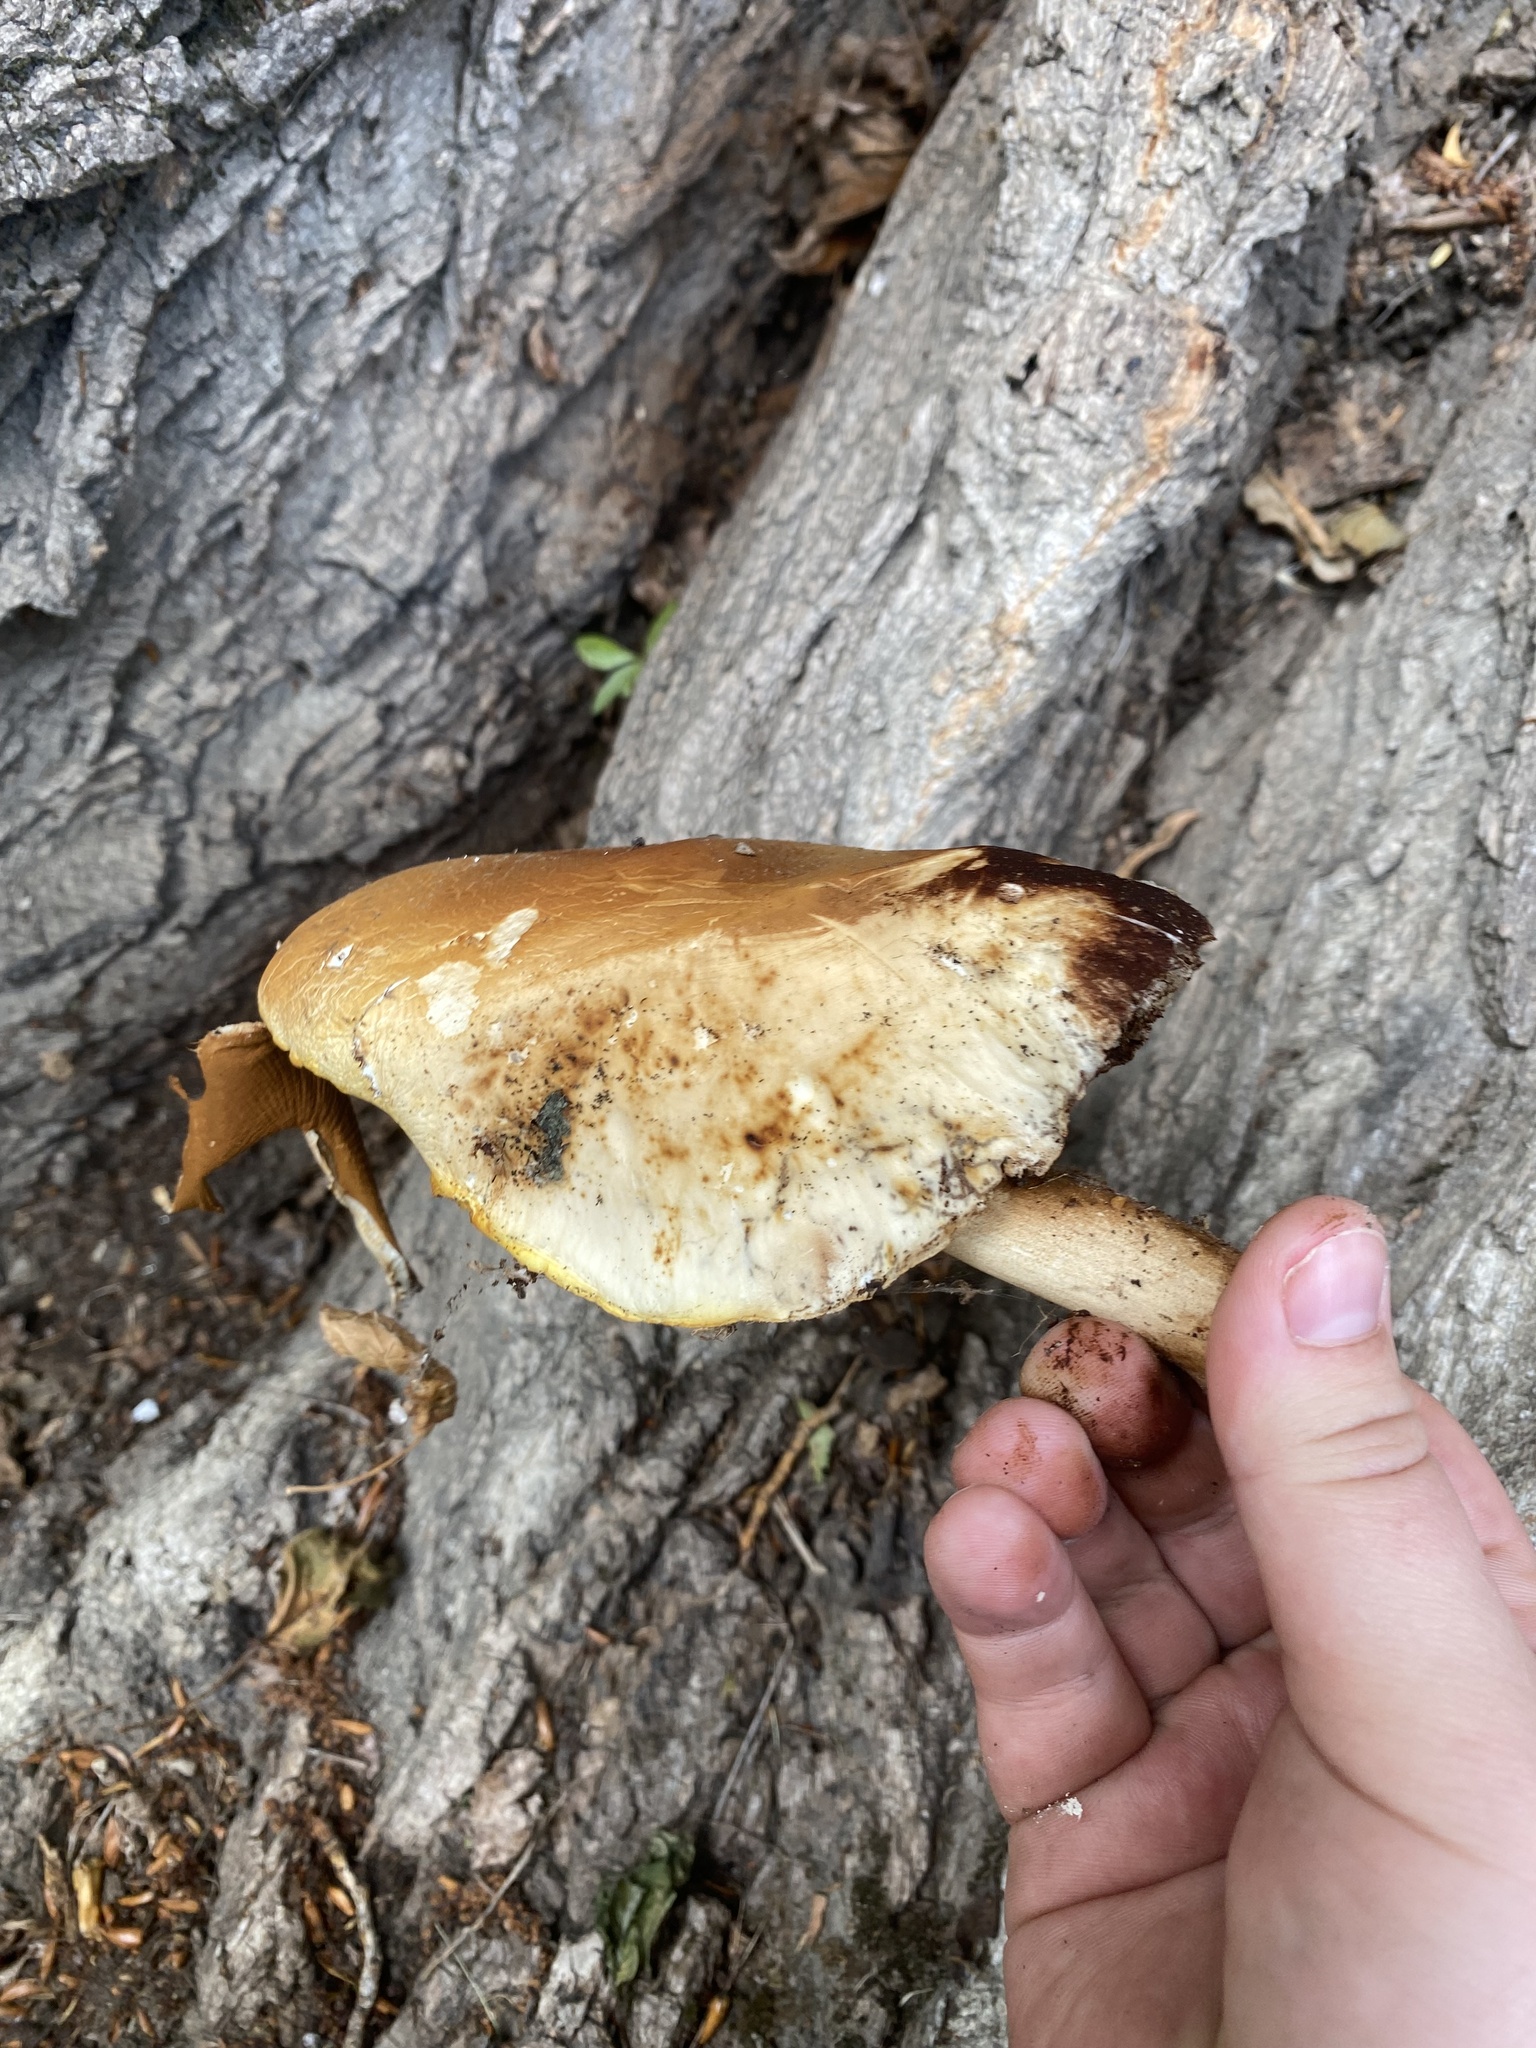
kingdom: Fungi
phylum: Basidiomycota
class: Agaricomycetes
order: Agaricales
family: Tubariaceae
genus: Cyclocybe
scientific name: Cyclocybe parasitica
